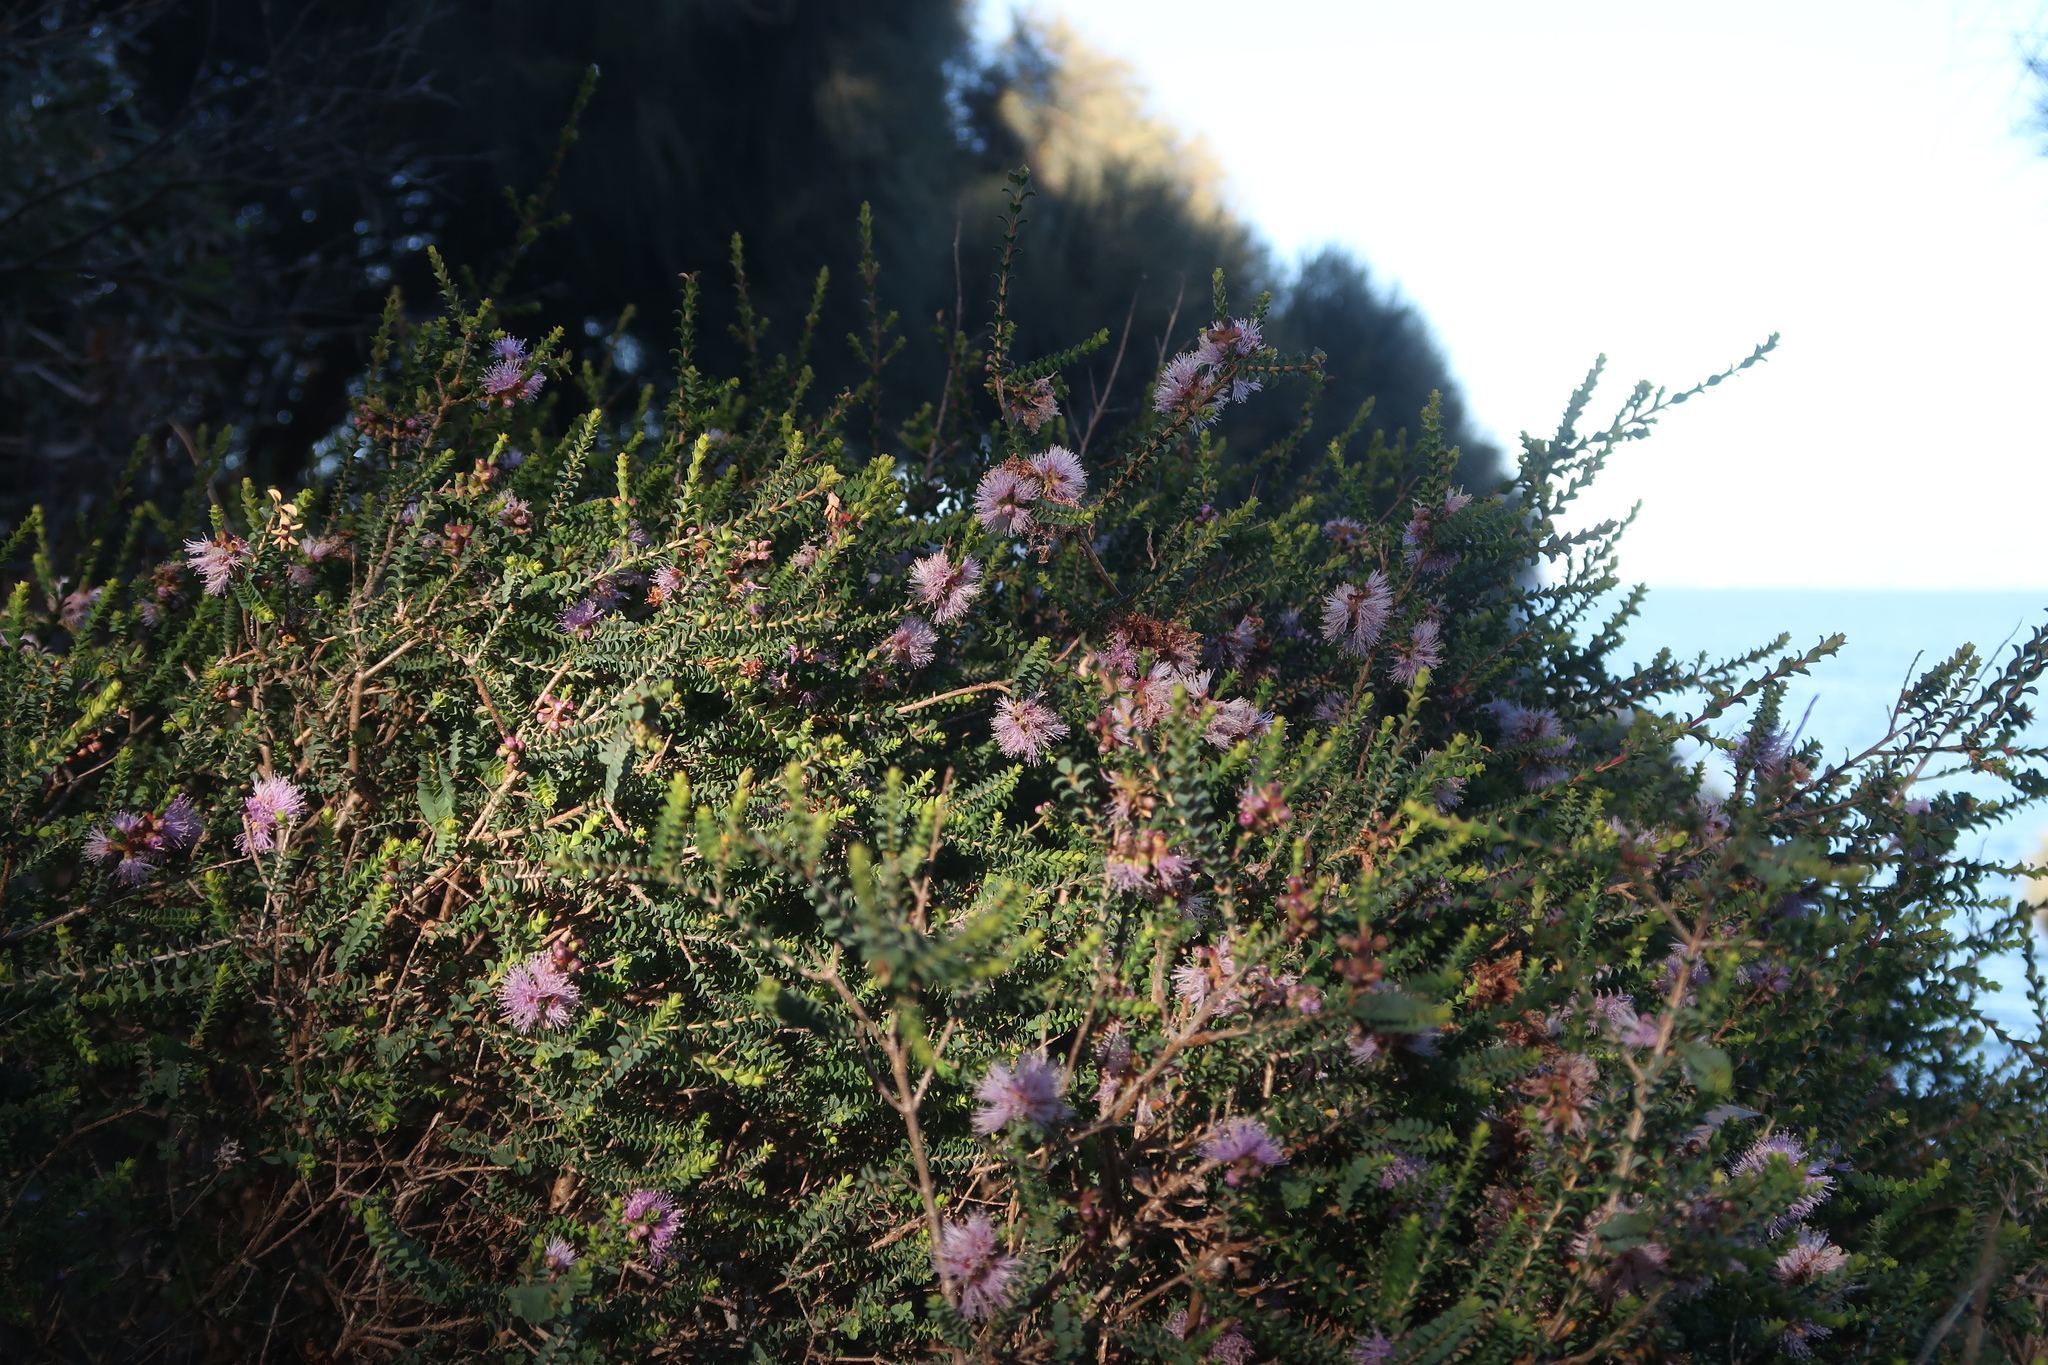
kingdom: Plantae
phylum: Tracheophyta
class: Magnoliopsida
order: Myrtales
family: Myrtaceae
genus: Melaleuca
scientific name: Melaleuca gibbosa
